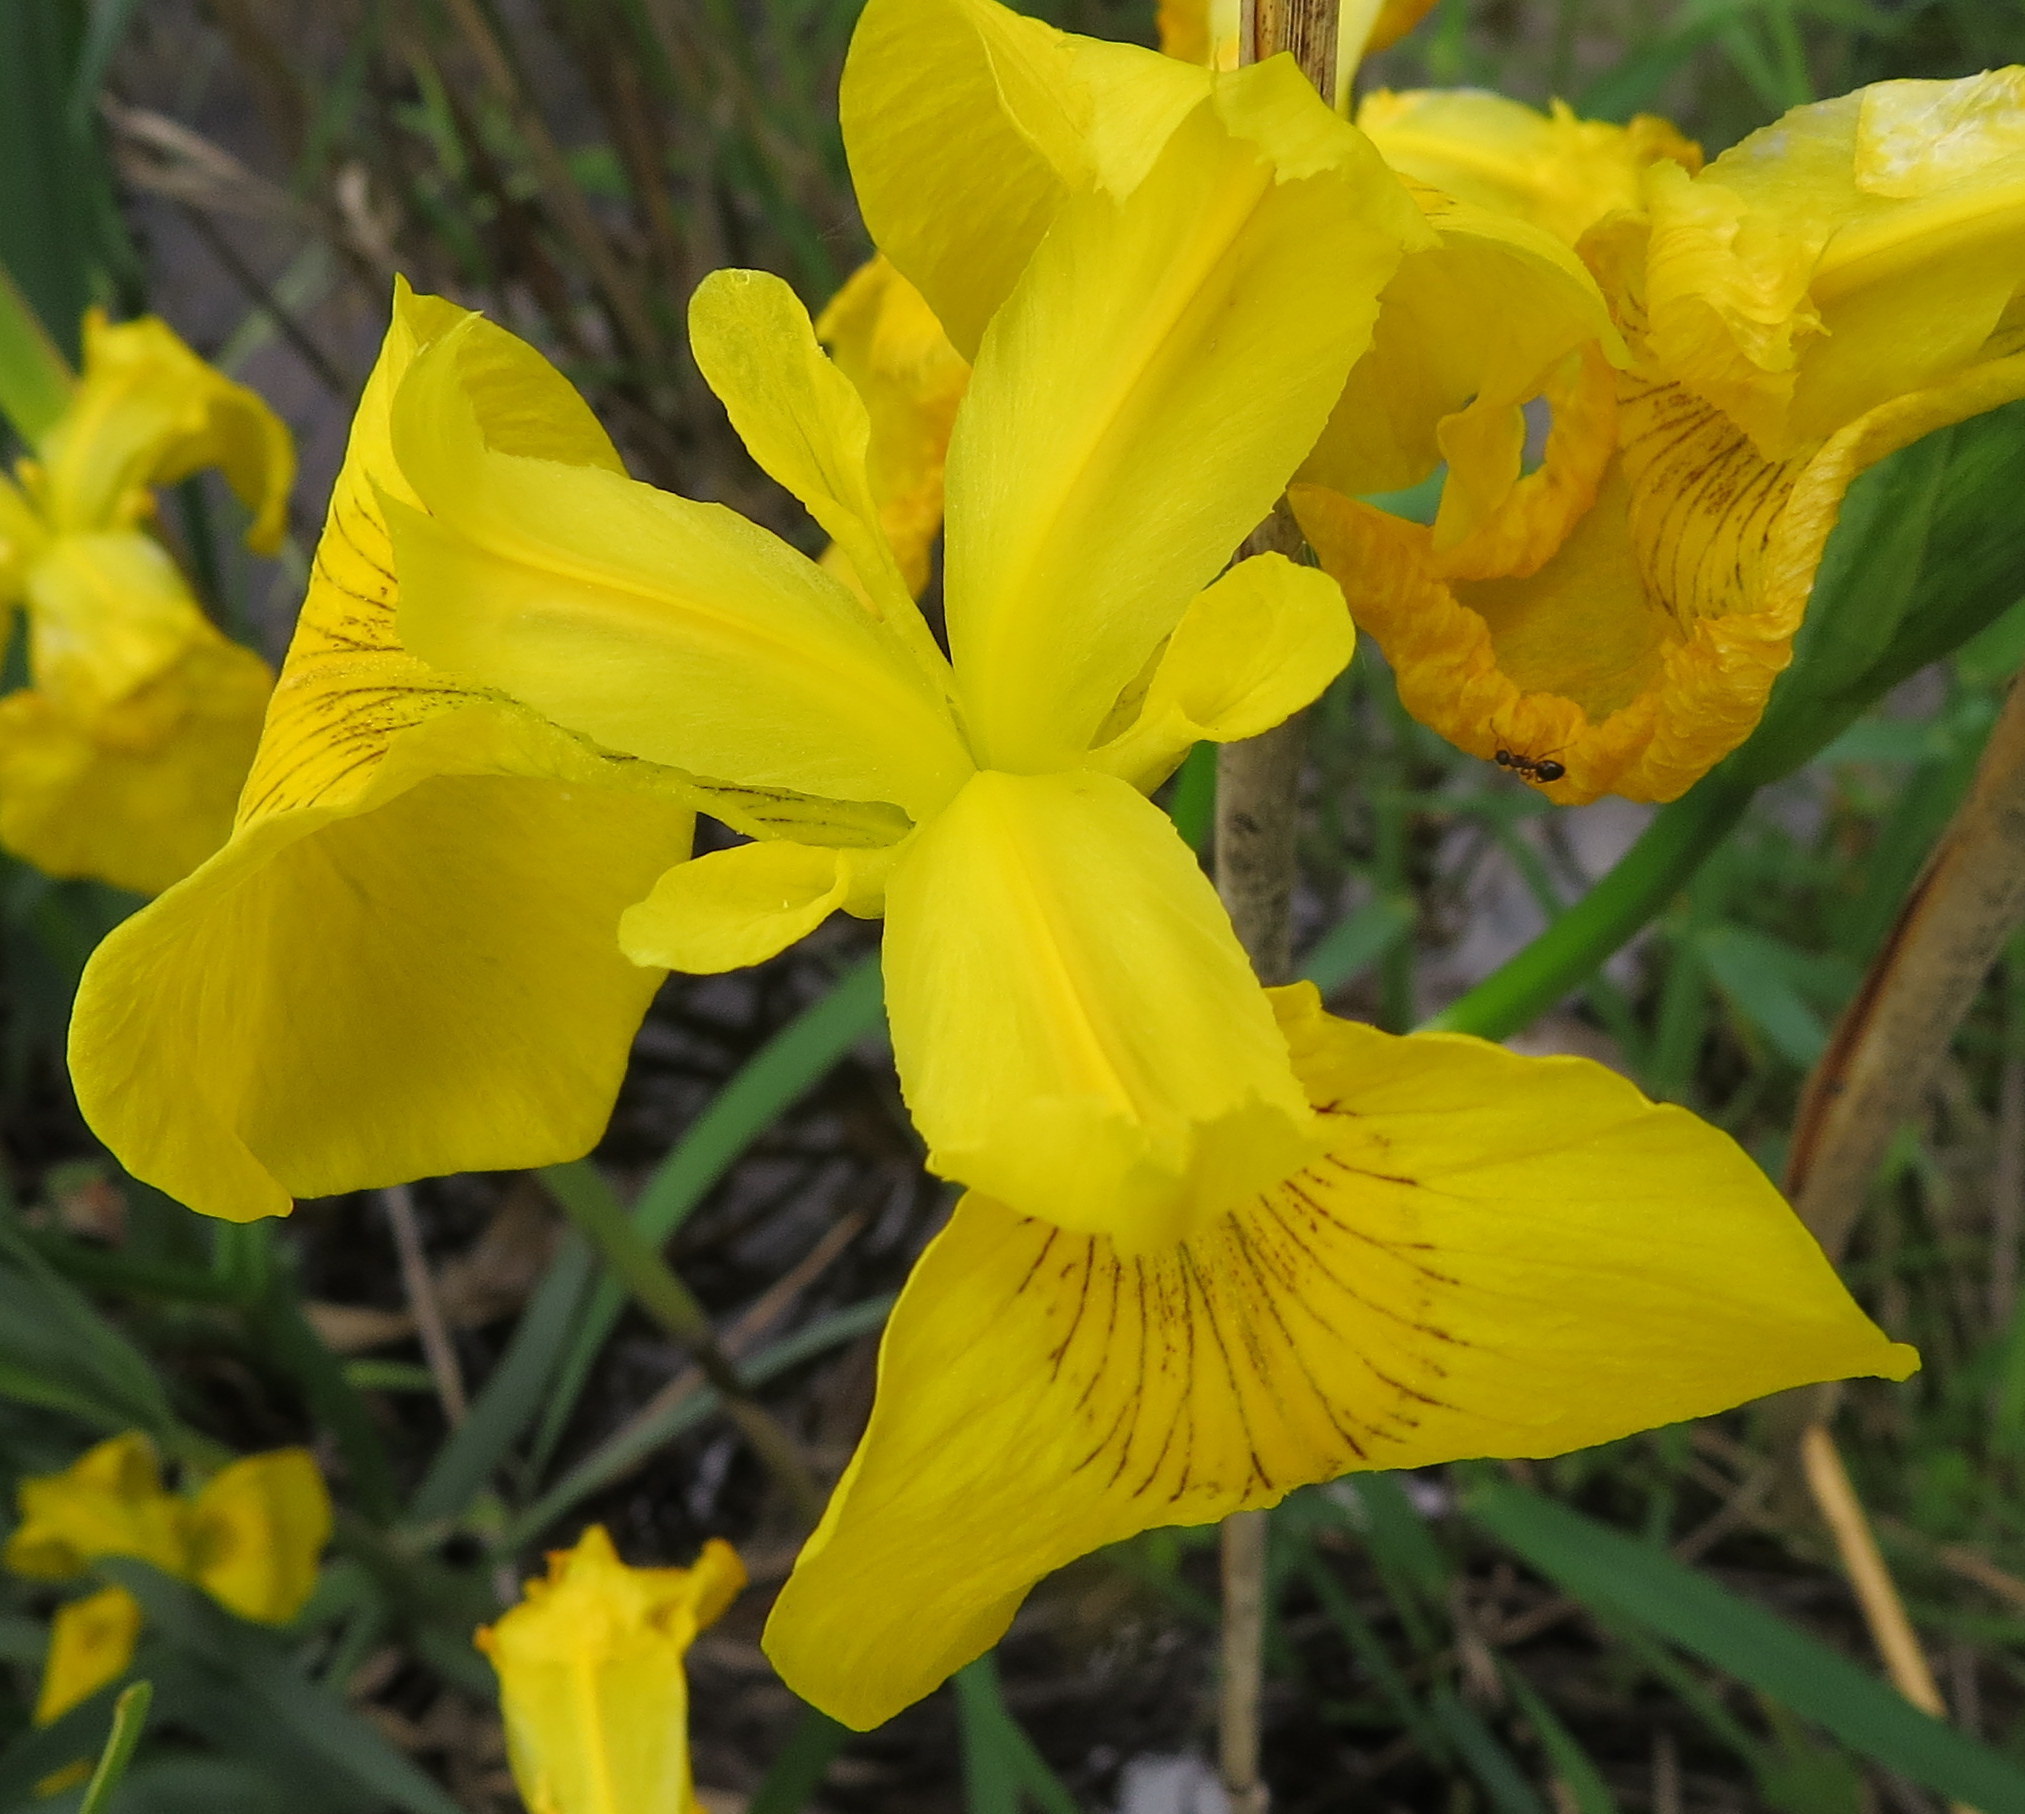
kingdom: Plantae
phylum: Tracheophyta
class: Liliopsida
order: Asparagales
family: Iridaceae
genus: Iris
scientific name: Iris pseudacorus
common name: Yellow flag
